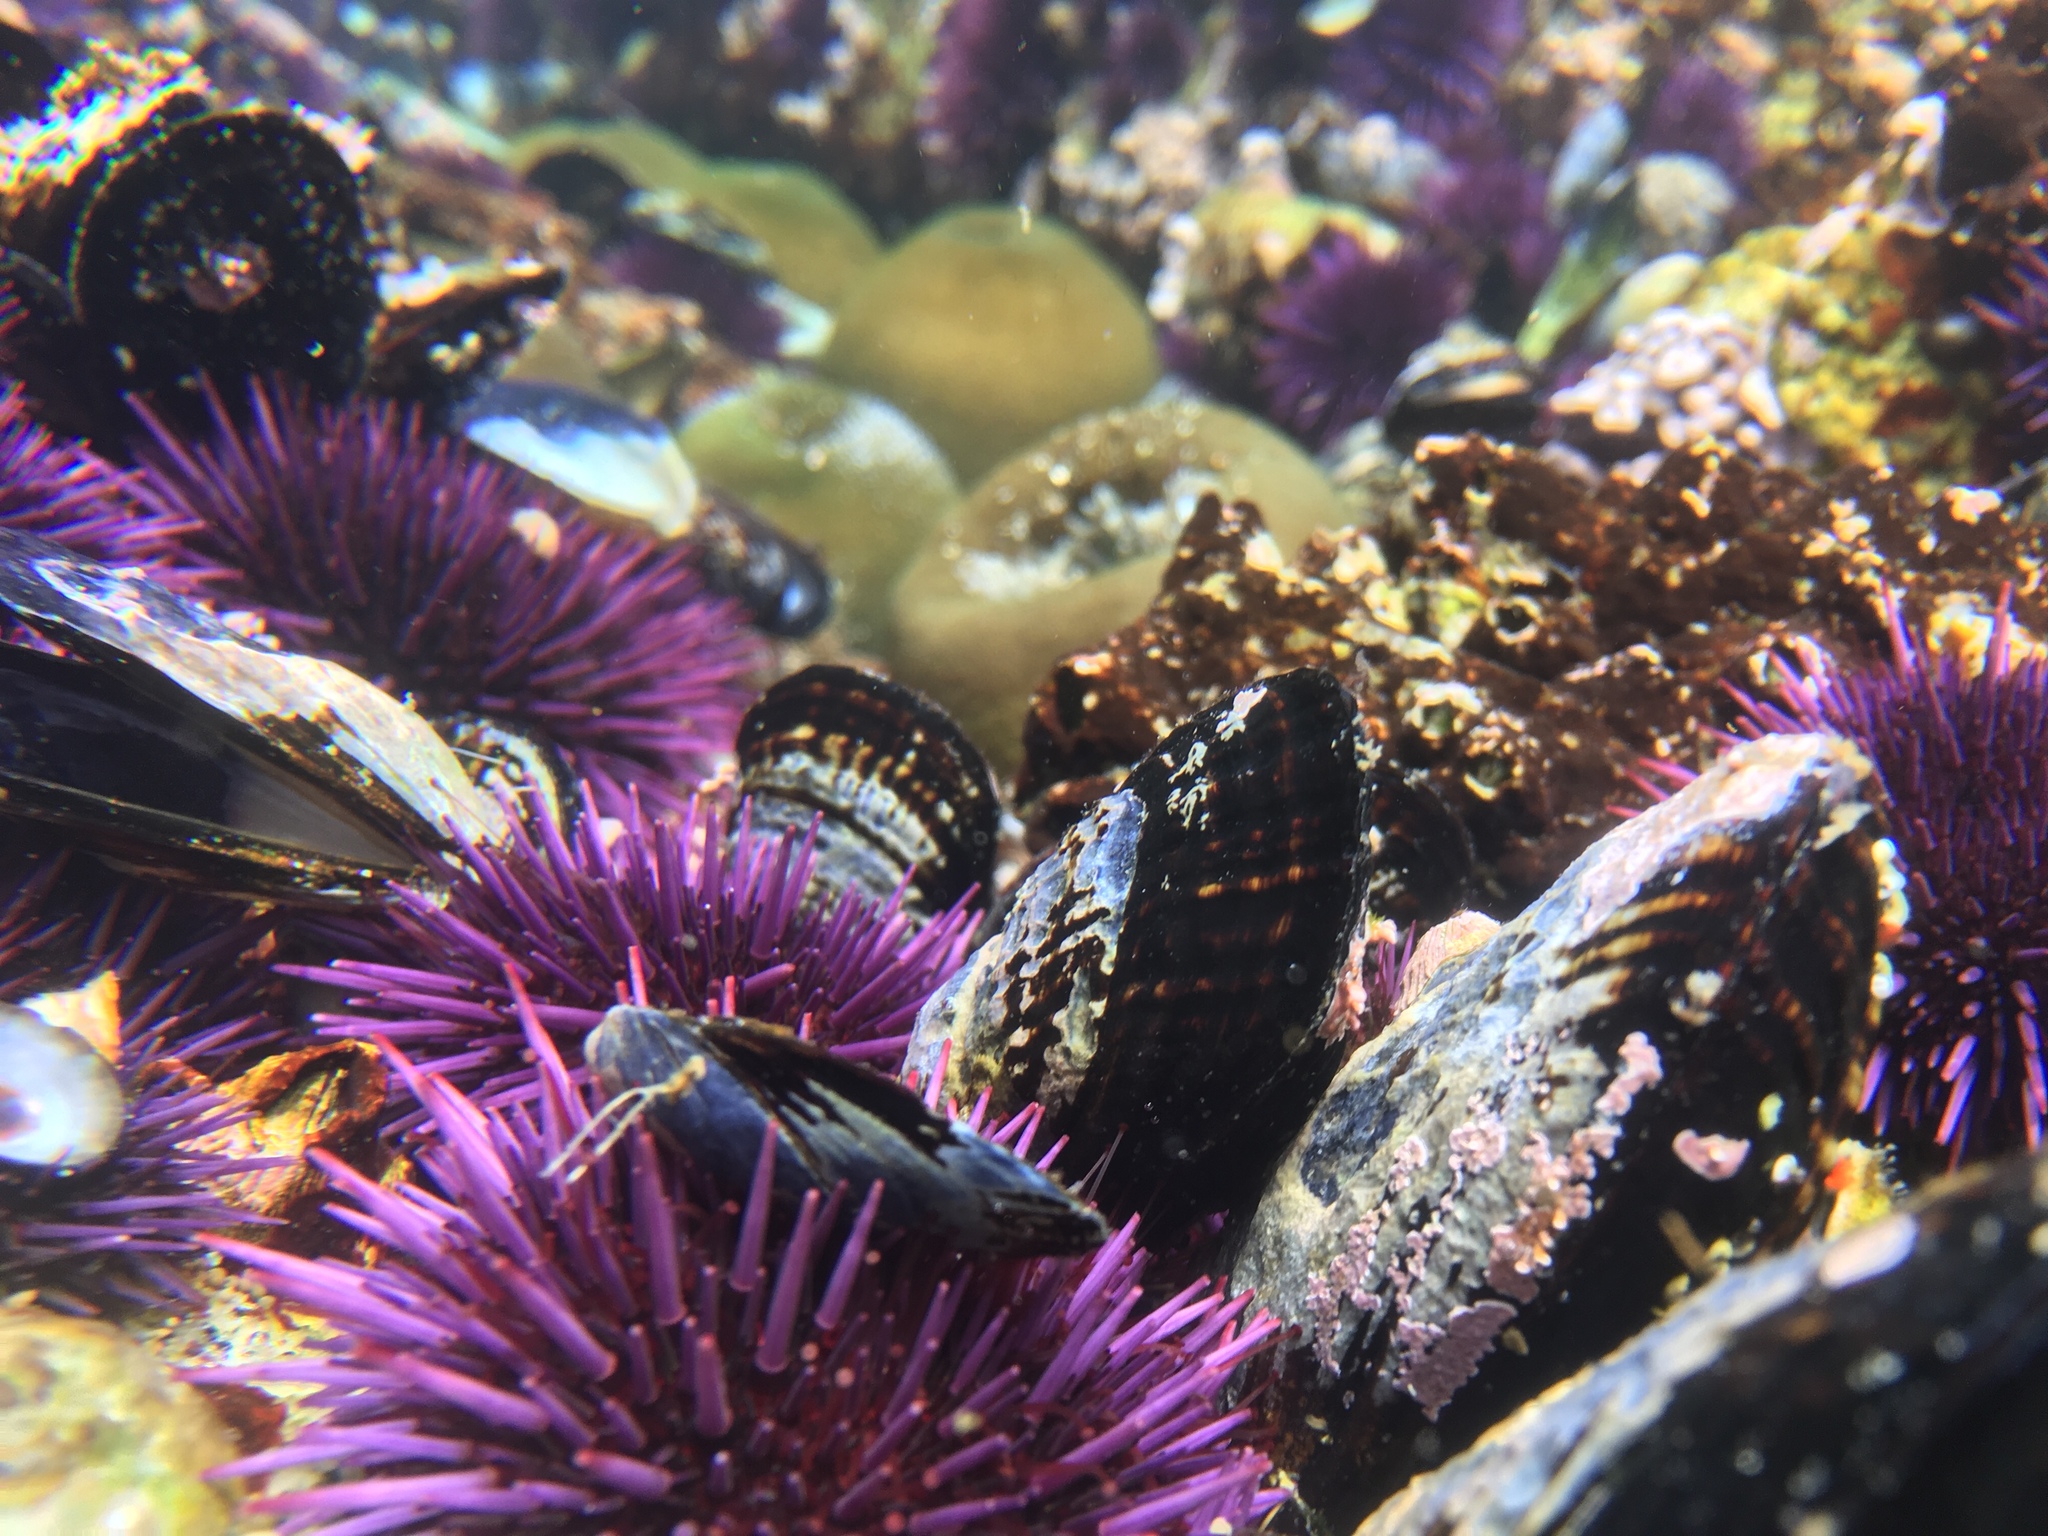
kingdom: Animalia
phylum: Echinodermata
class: Echinoidea
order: Camarodonta
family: Strongylocentrotidae
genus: Strongylocentrotus
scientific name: Strongylocentrotus purpuratus
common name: Purple sea urchin
